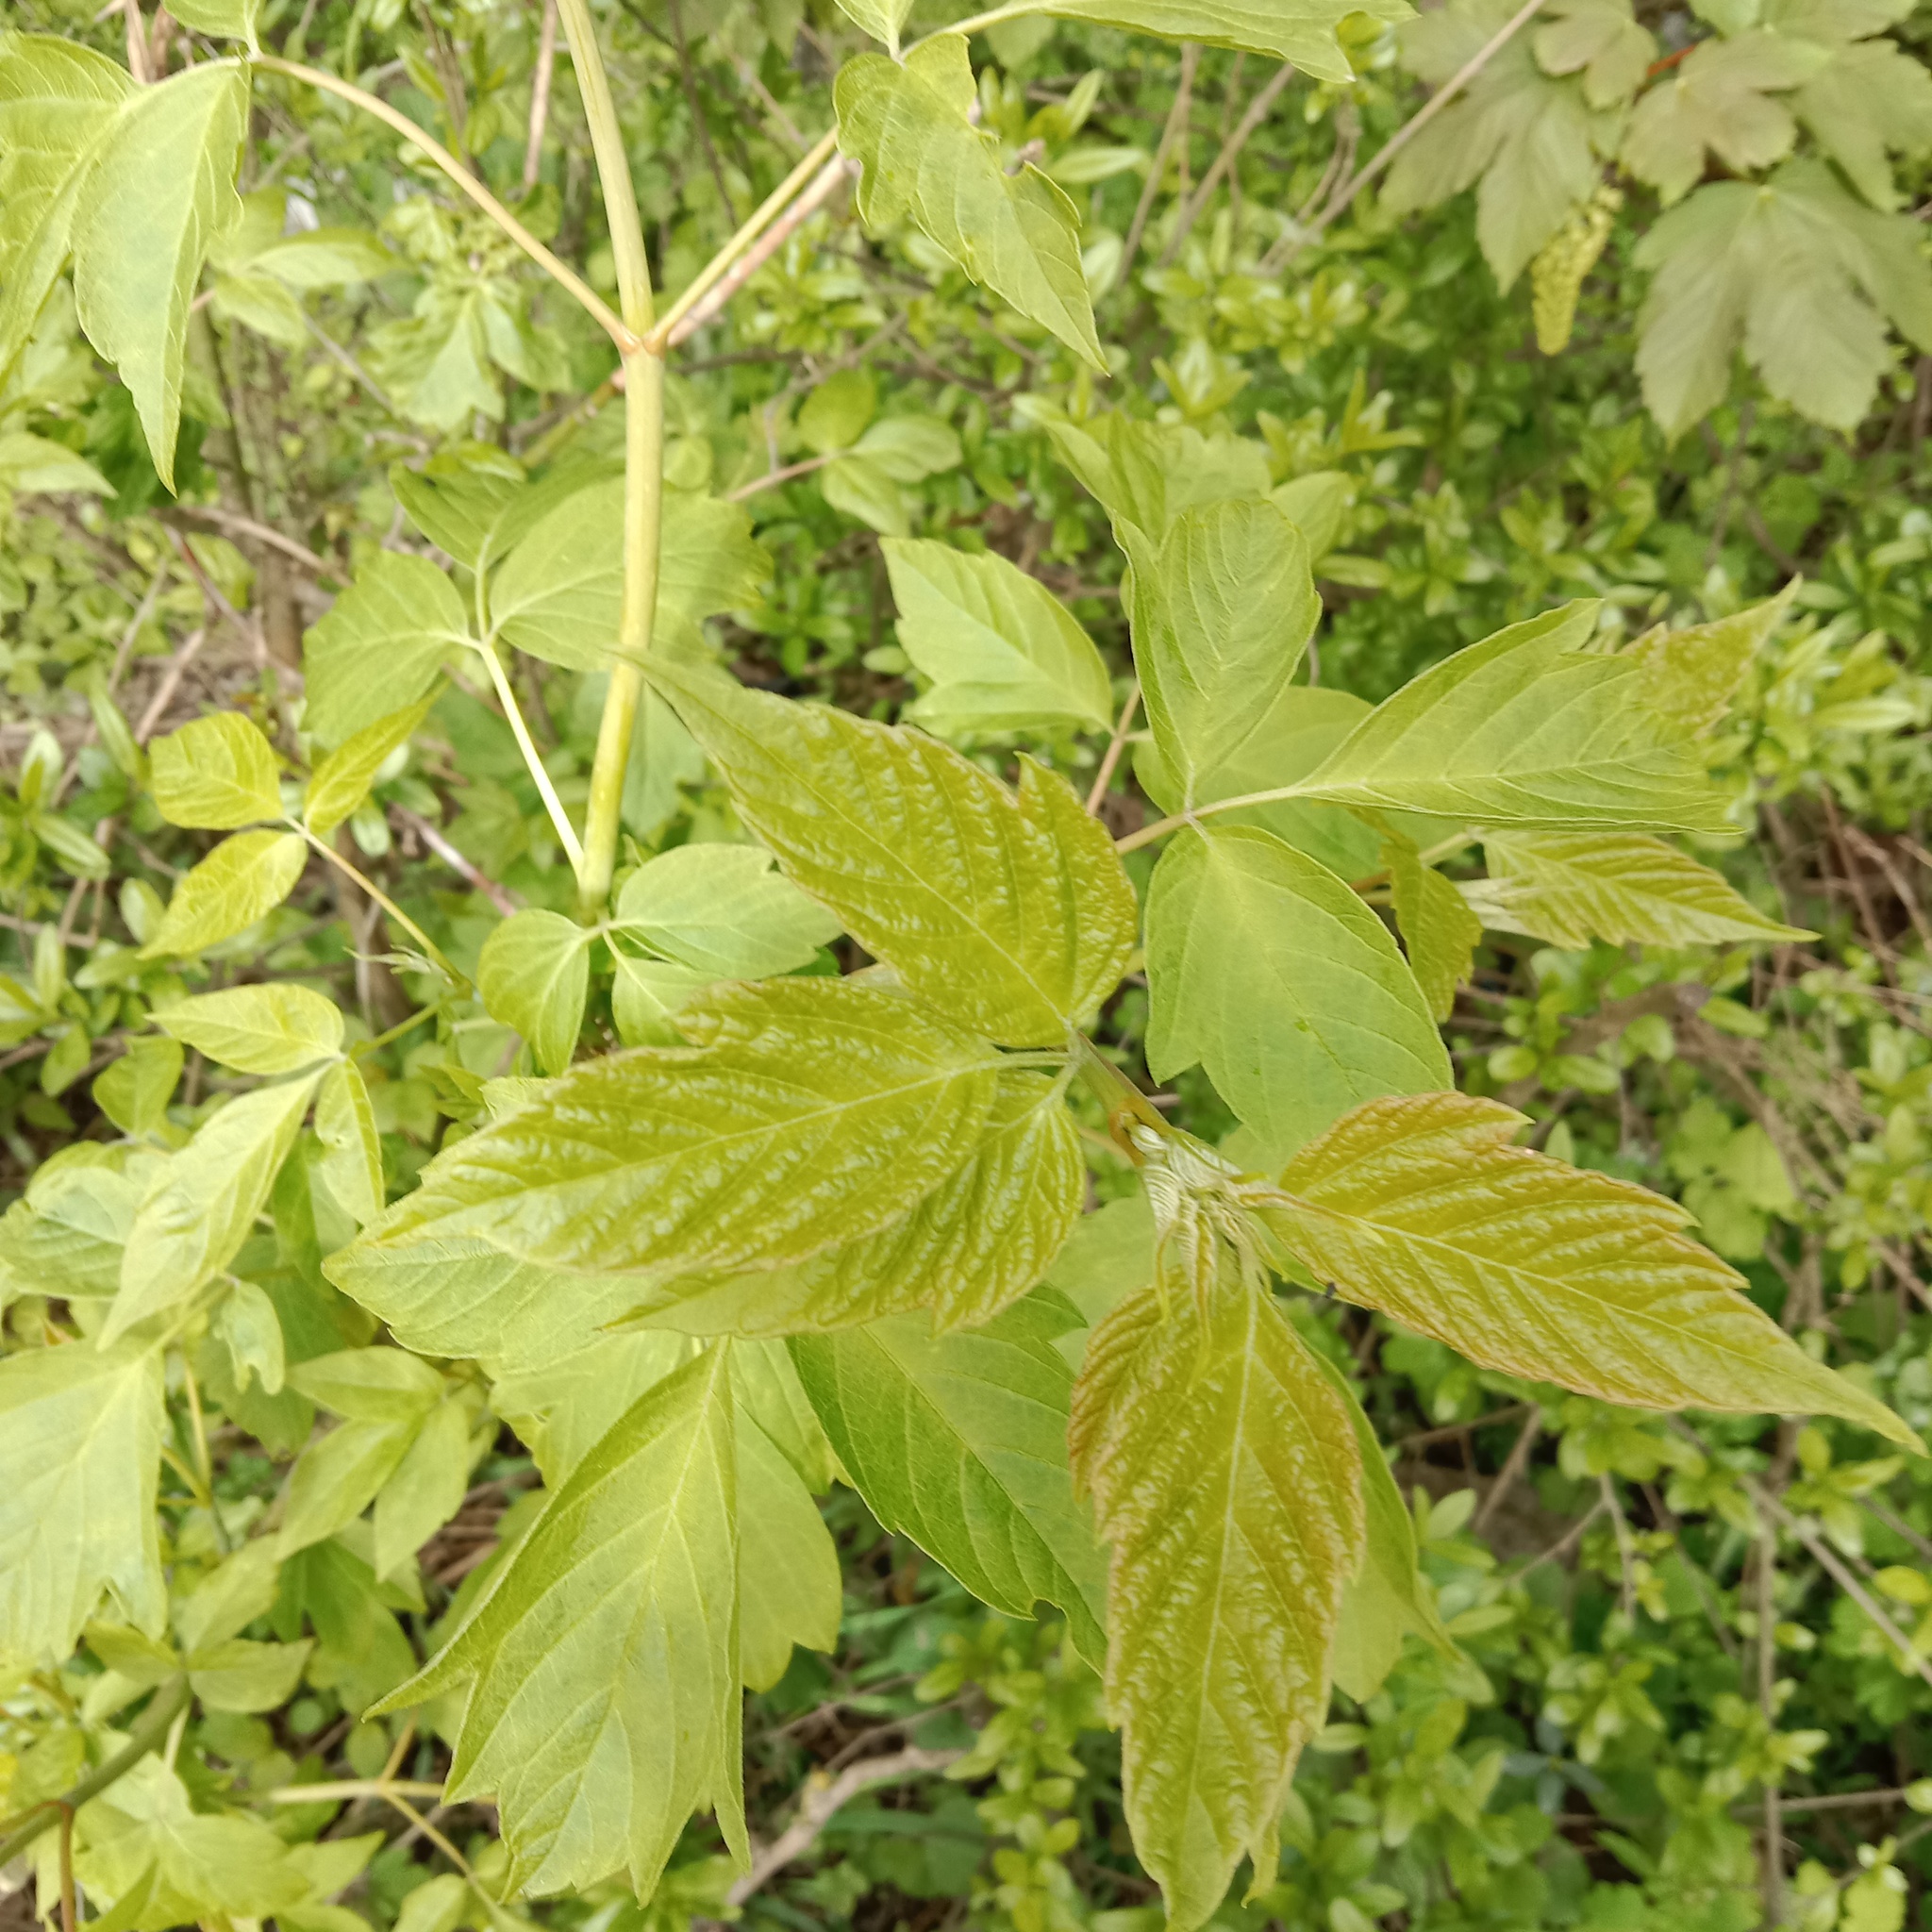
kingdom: Plantae
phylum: Tracheophyta
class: Magnoliopsida
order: Sapindales
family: Sapindaceae
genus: Acer
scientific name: Acer negundo
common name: Ashleaf maple
